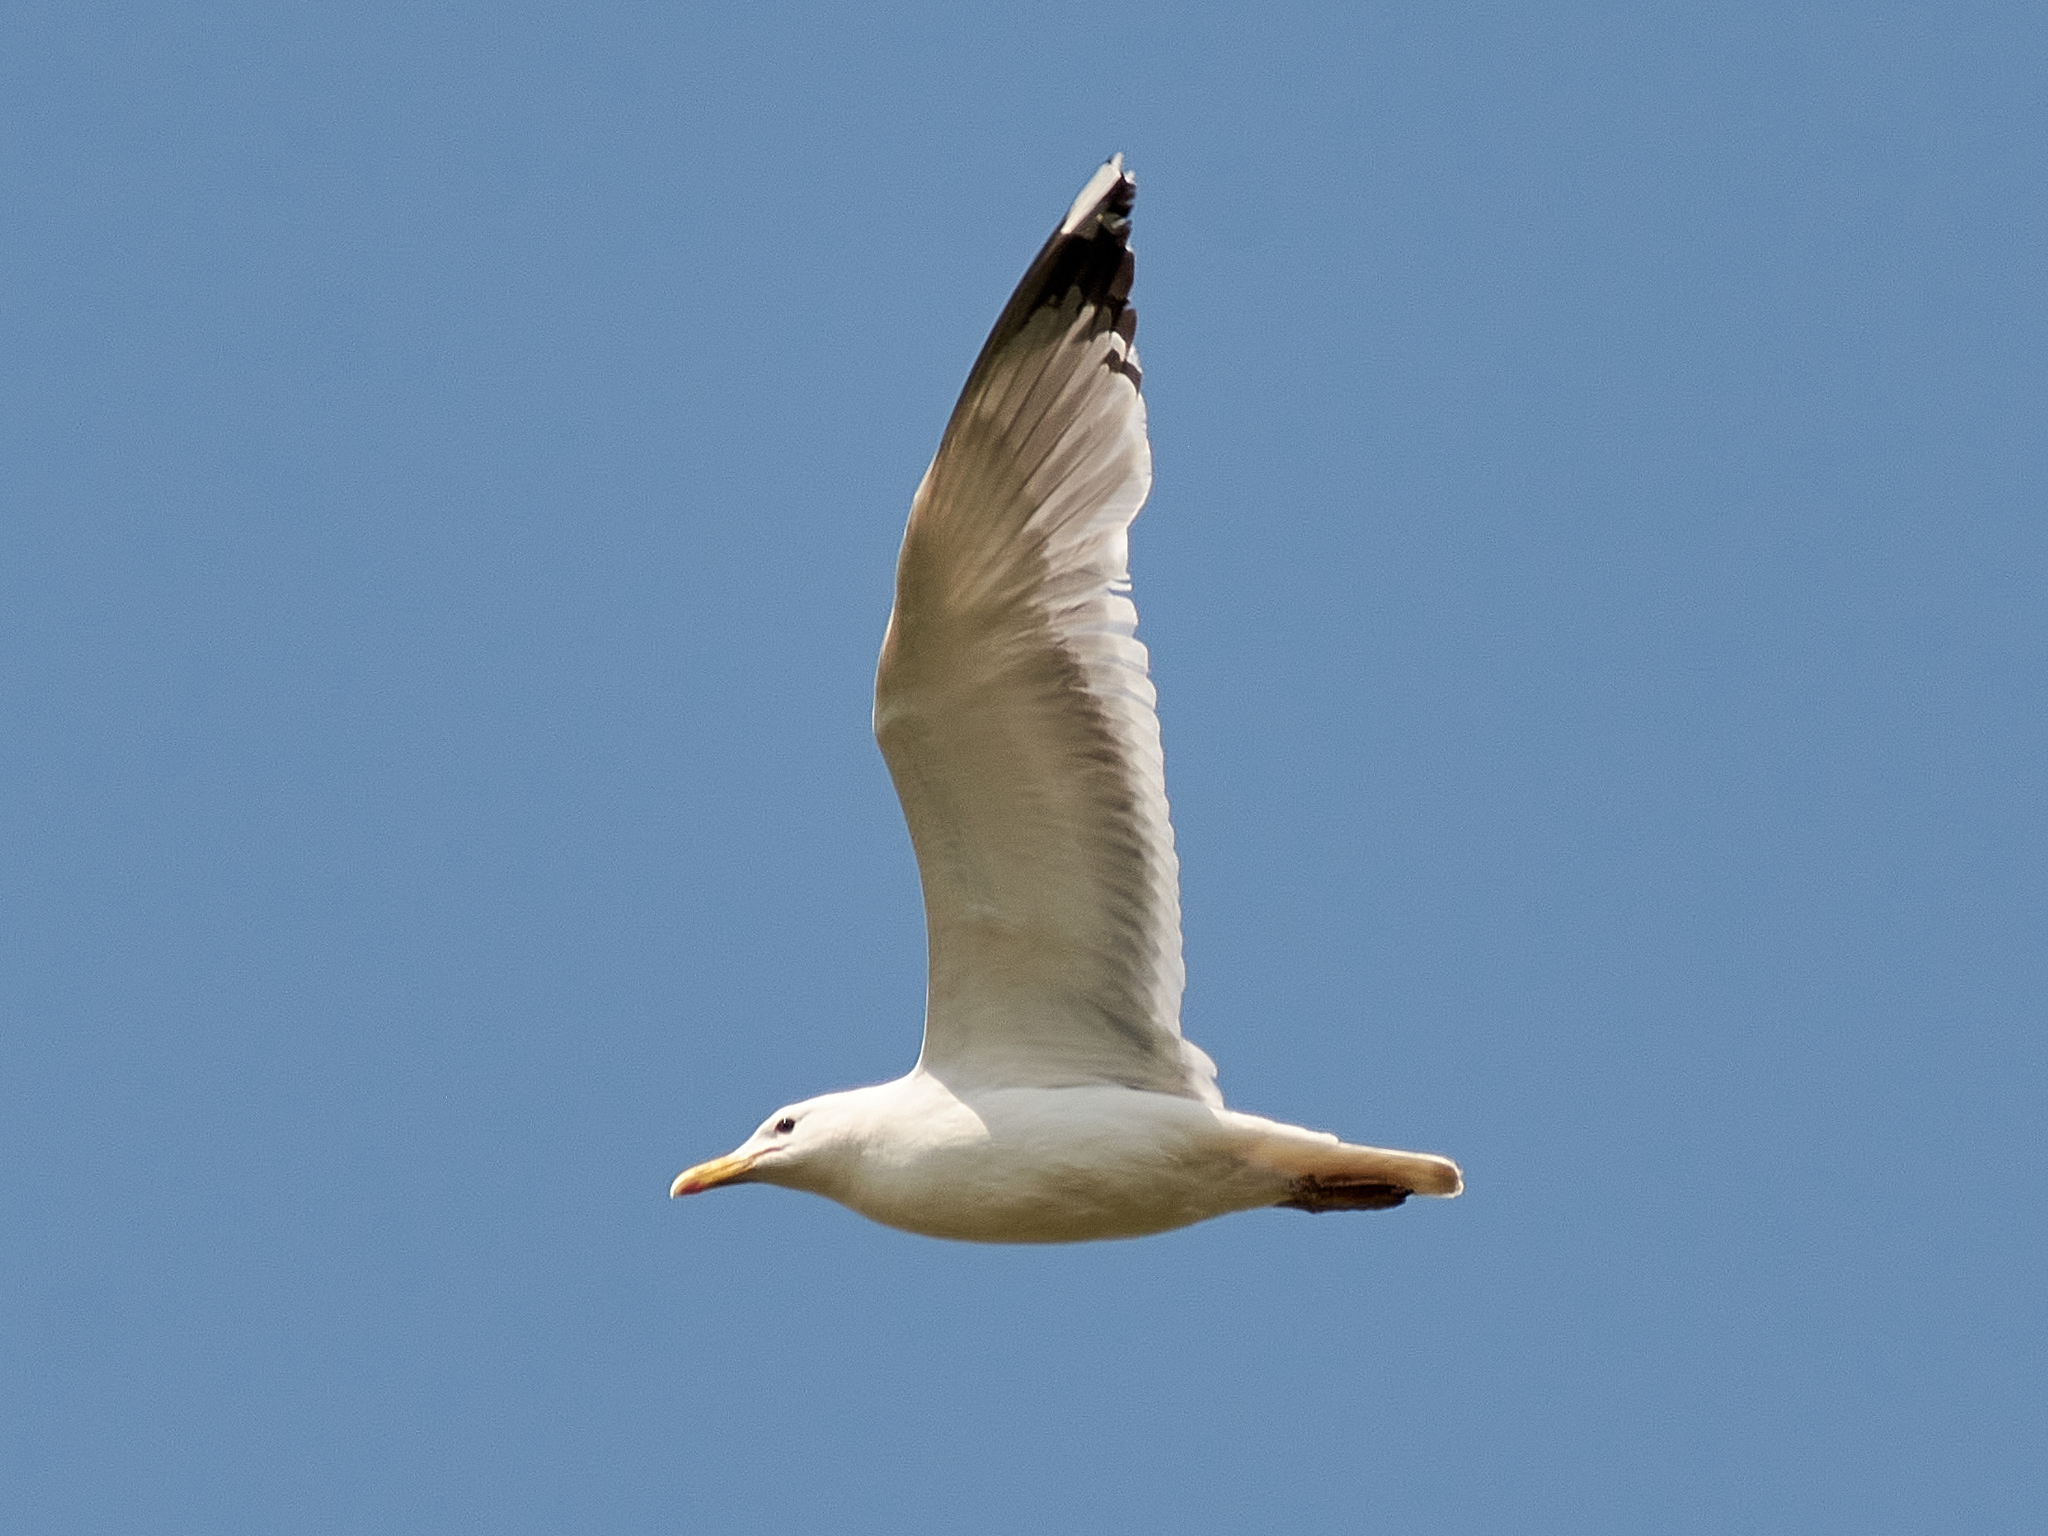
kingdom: Animalia
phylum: Chordata
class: Aves
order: Charadriiformes
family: Laridae
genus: Larus
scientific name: Larus cachinnans
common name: Caspian gull
